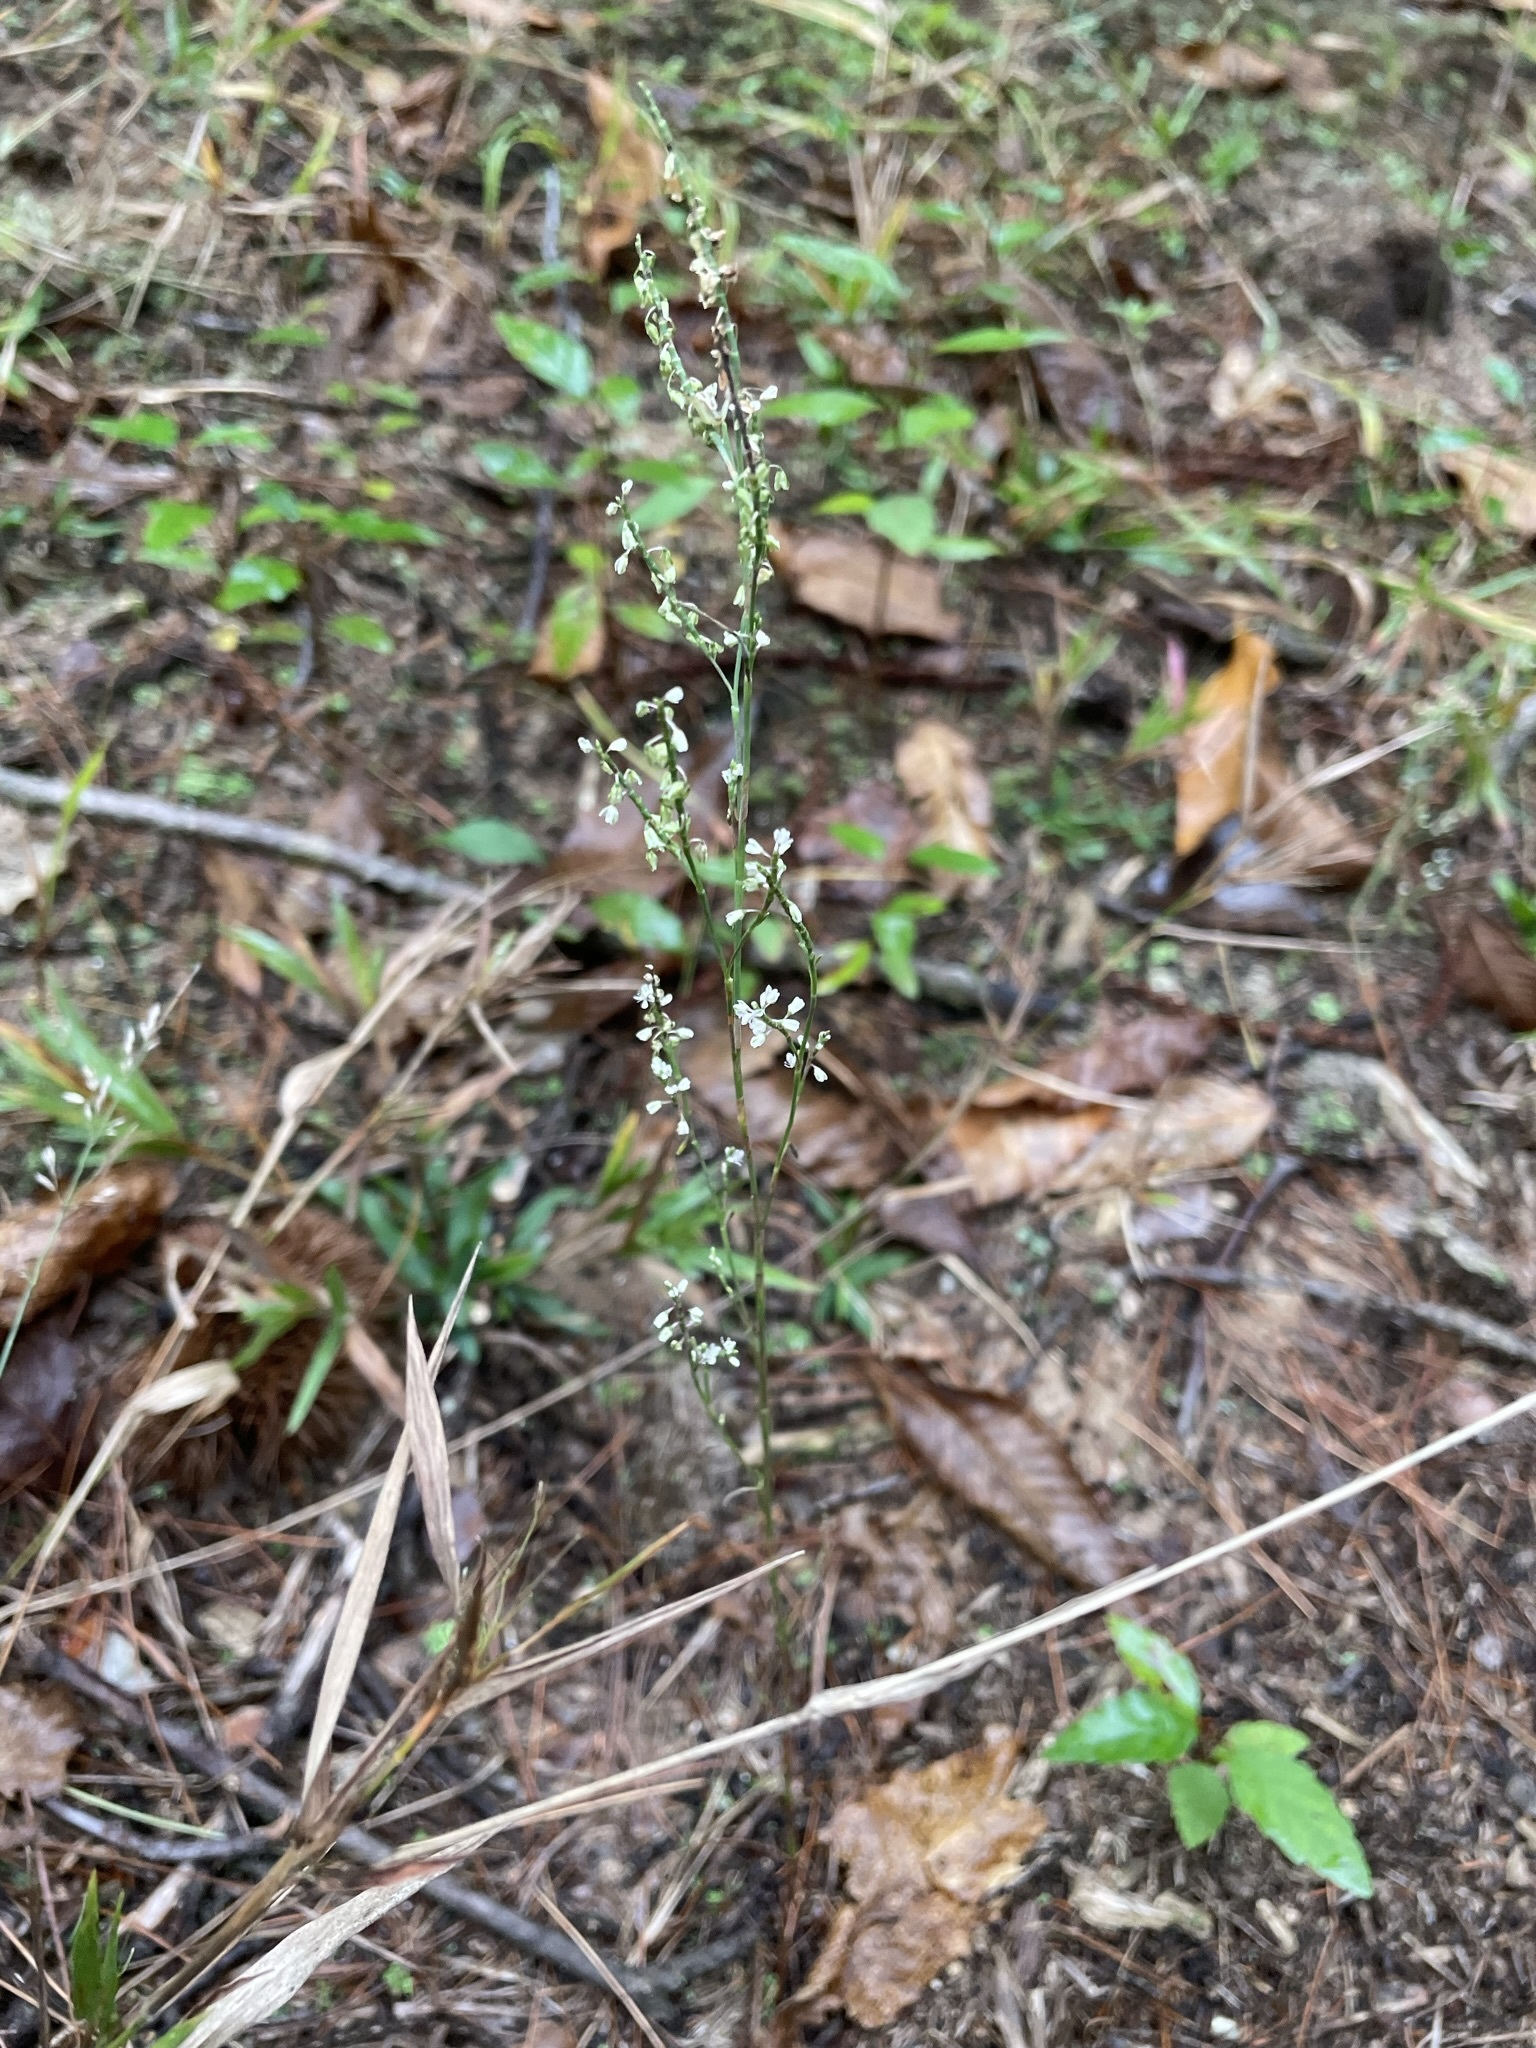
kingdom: Plantae
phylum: Tracheophyta
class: Magnoliopsida
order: Caryophyllales
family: Polygonaceae
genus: Polygonella
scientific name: Polygonella articulata
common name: Coastal jointweed
